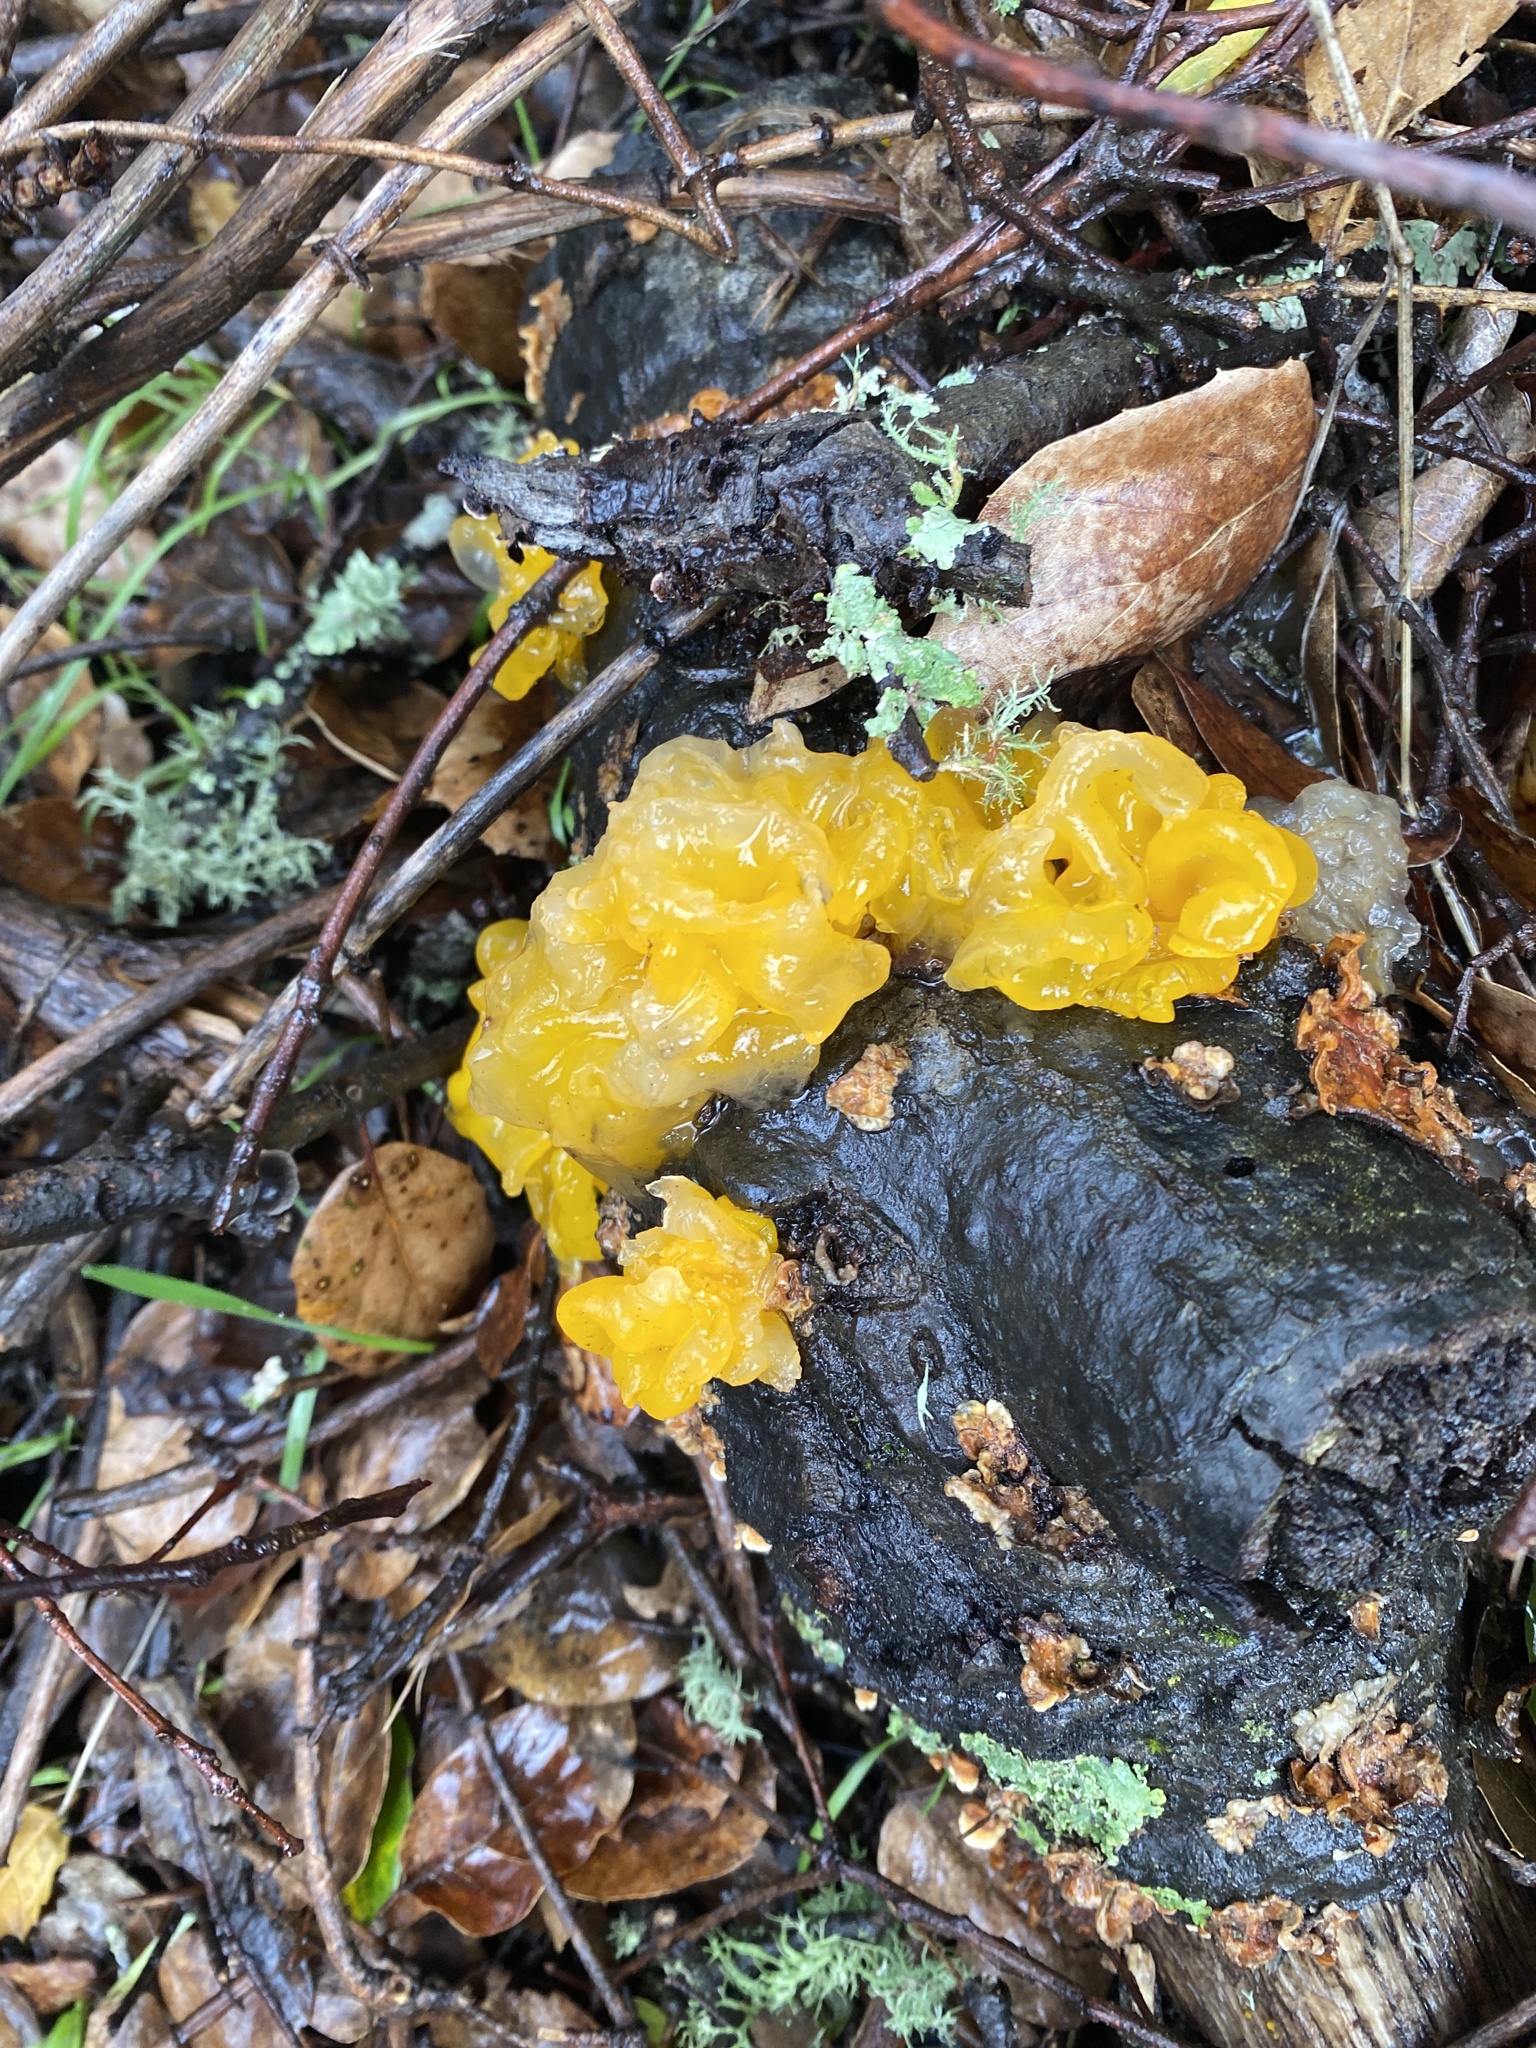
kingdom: Fungi
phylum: Basidiomycota
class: Tremellomycetes
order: Tremellales
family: Naemateliaceae
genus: Naematelia
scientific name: Naematelia aurantia
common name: Golden ear
